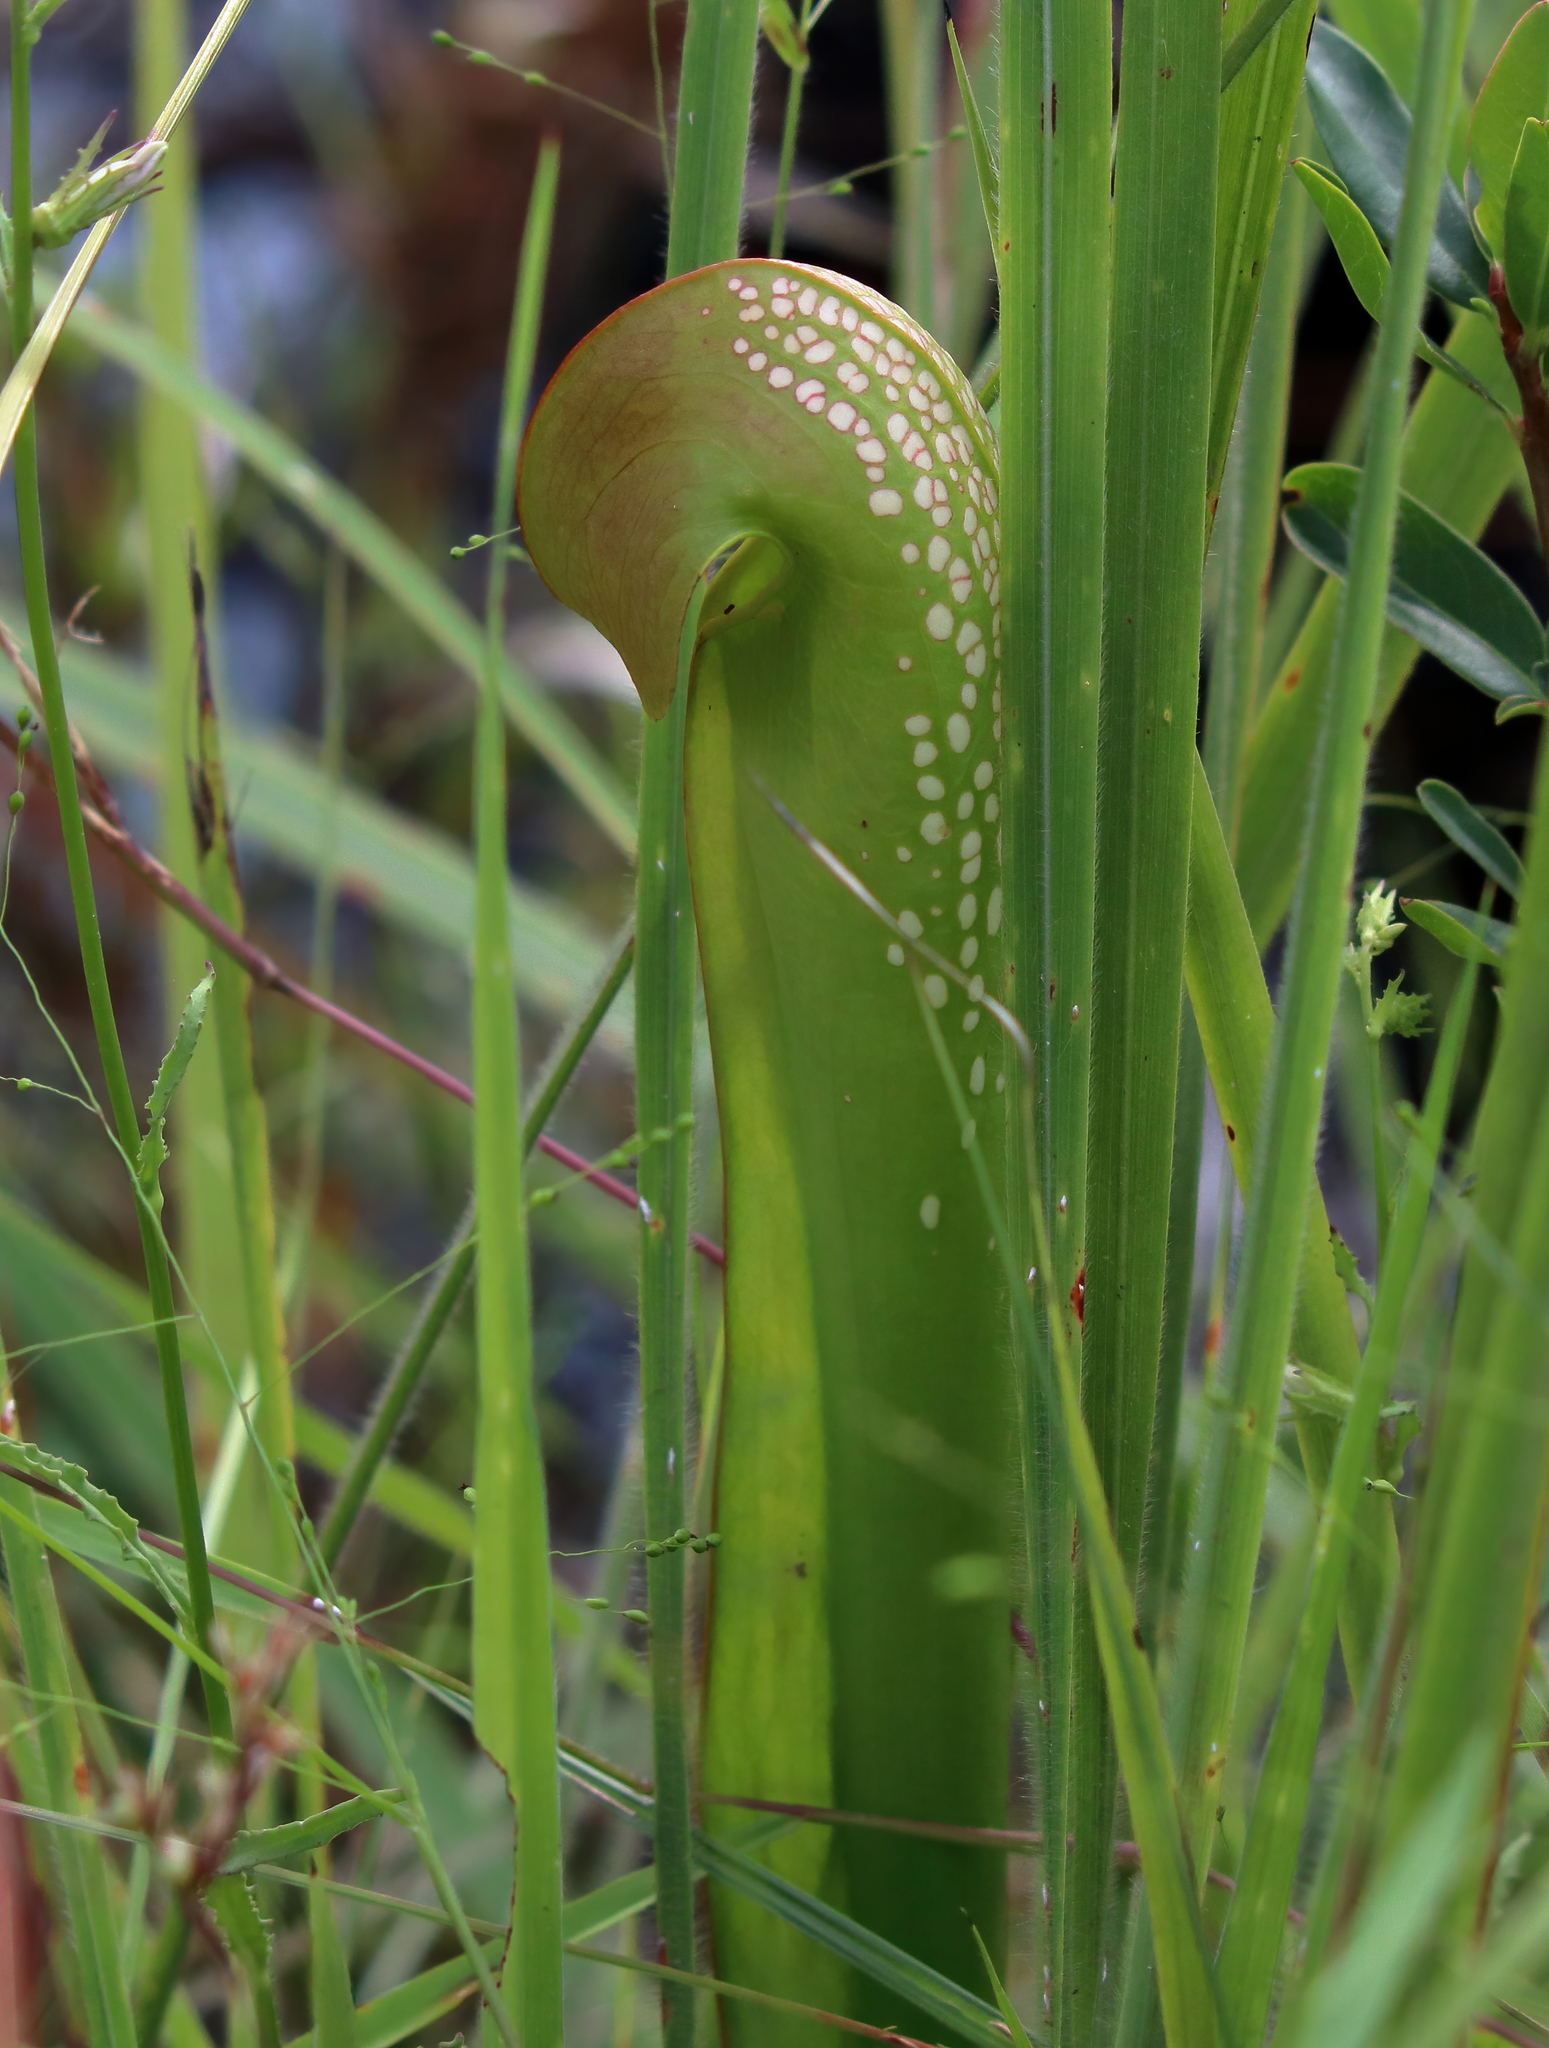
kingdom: Plantae
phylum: Tracheophyta
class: Magnoliopsida
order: Ericales
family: Sarraceniaceae
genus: Sarracenia
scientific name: Sarracenia minor
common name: Rainhat-trumpet
